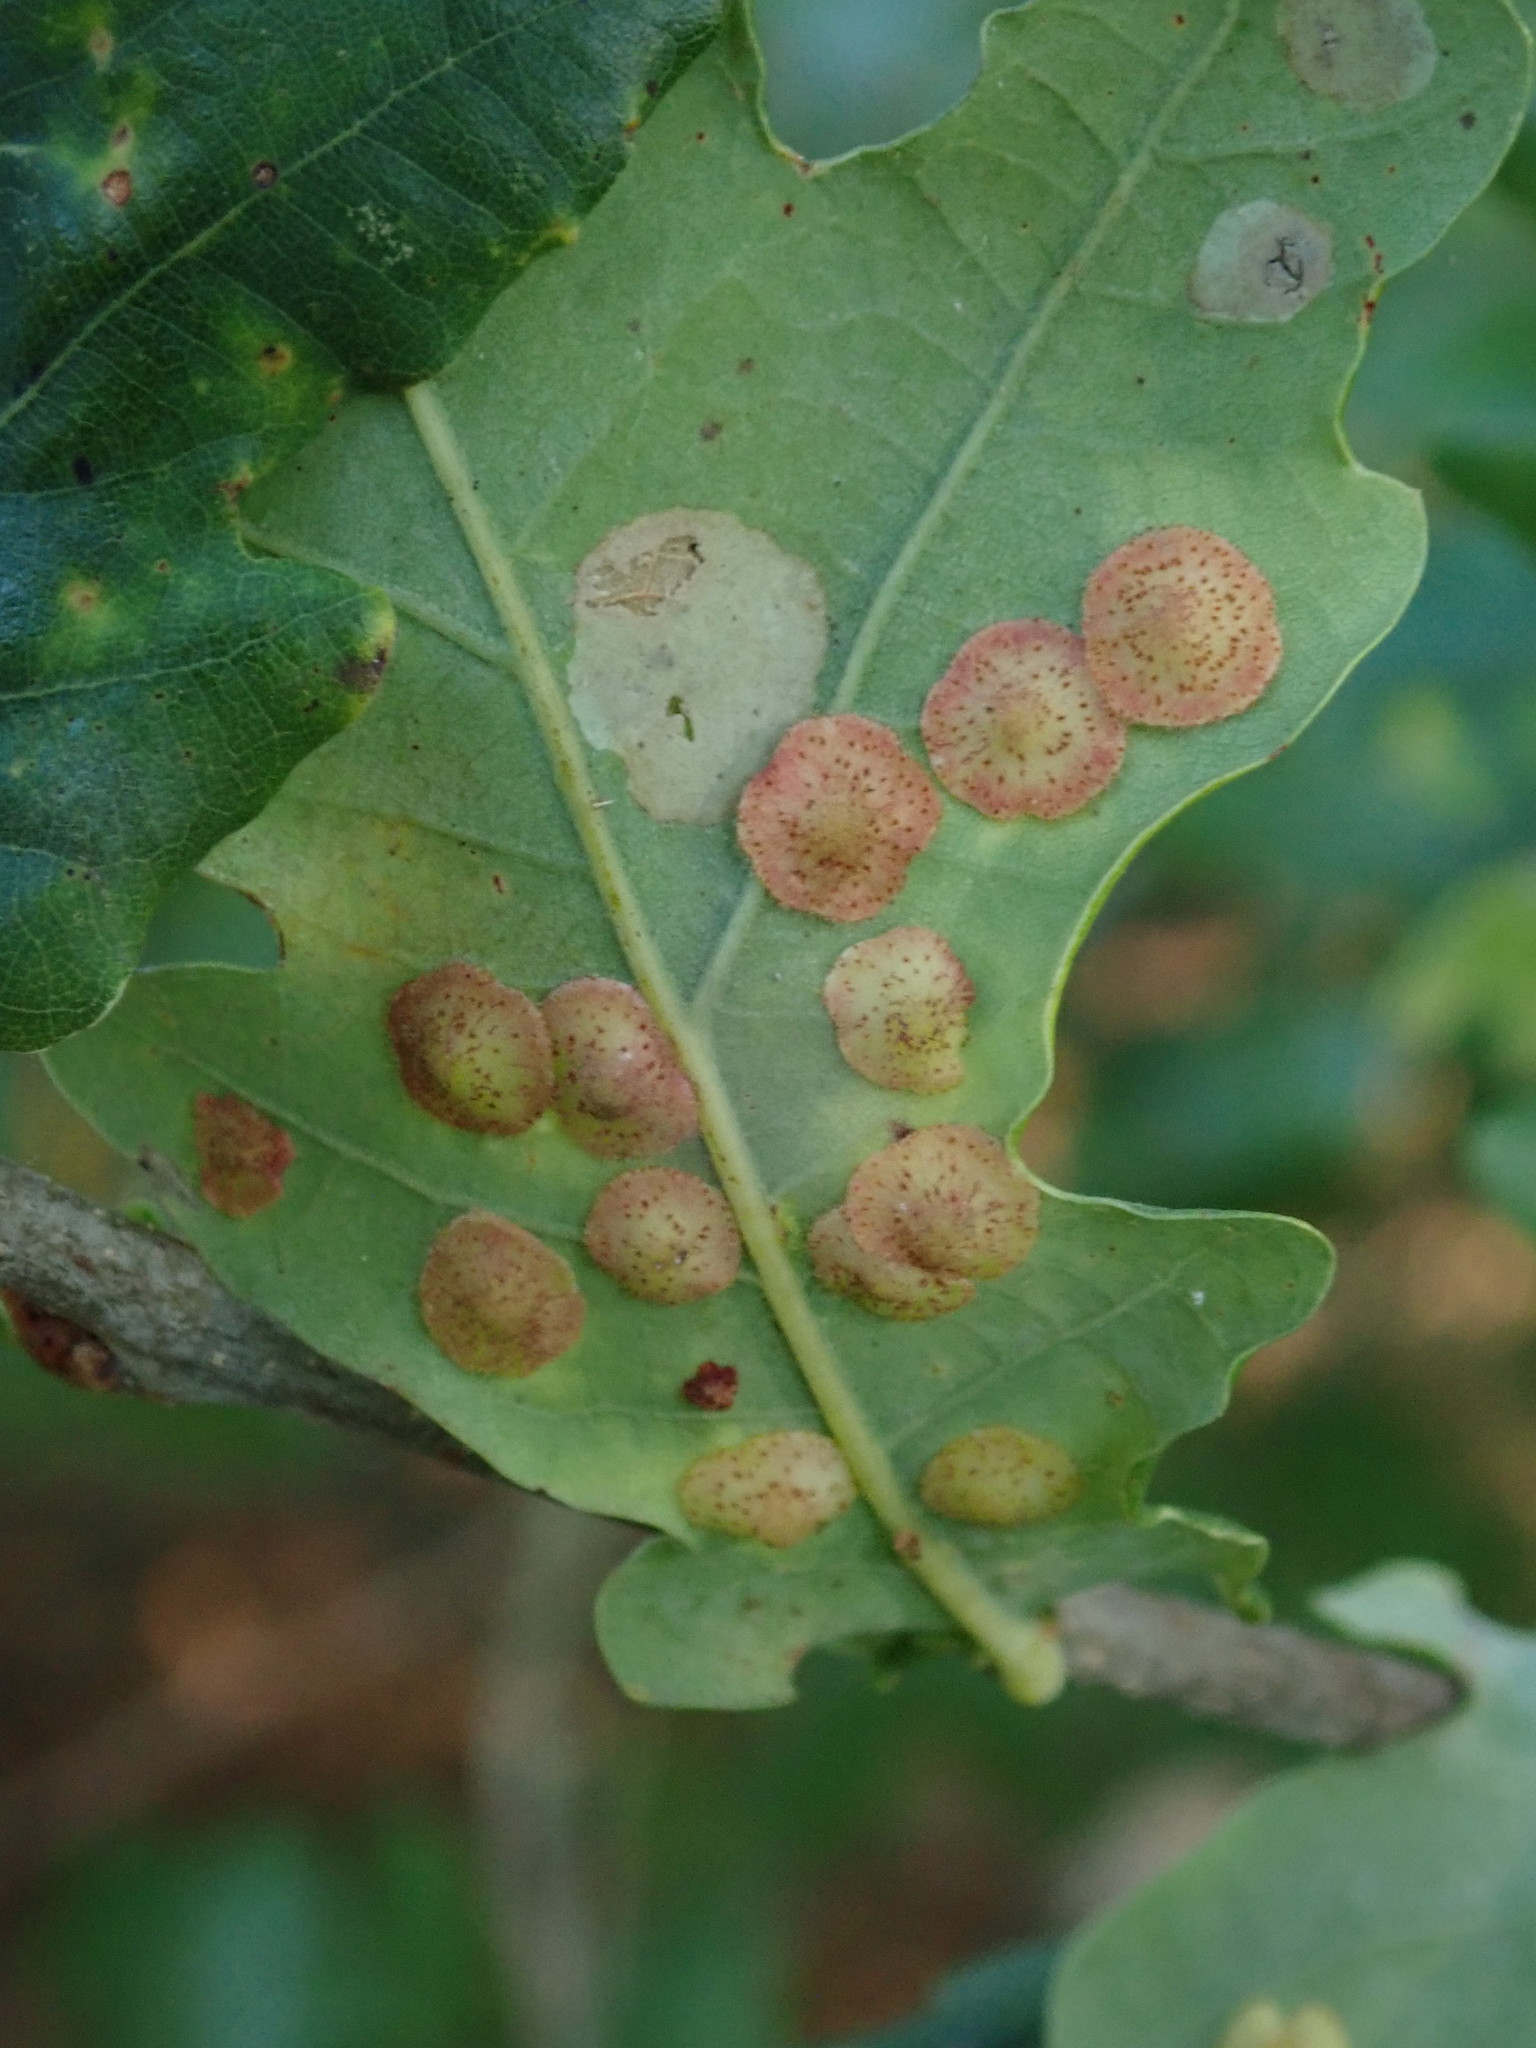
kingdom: Animalia
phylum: Arthropoda
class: Insecta
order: Hymenoptera
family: Cynipidae
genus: Neuroterus
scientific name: Neuroterus quercusbaccarum
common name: Common spangle gall
